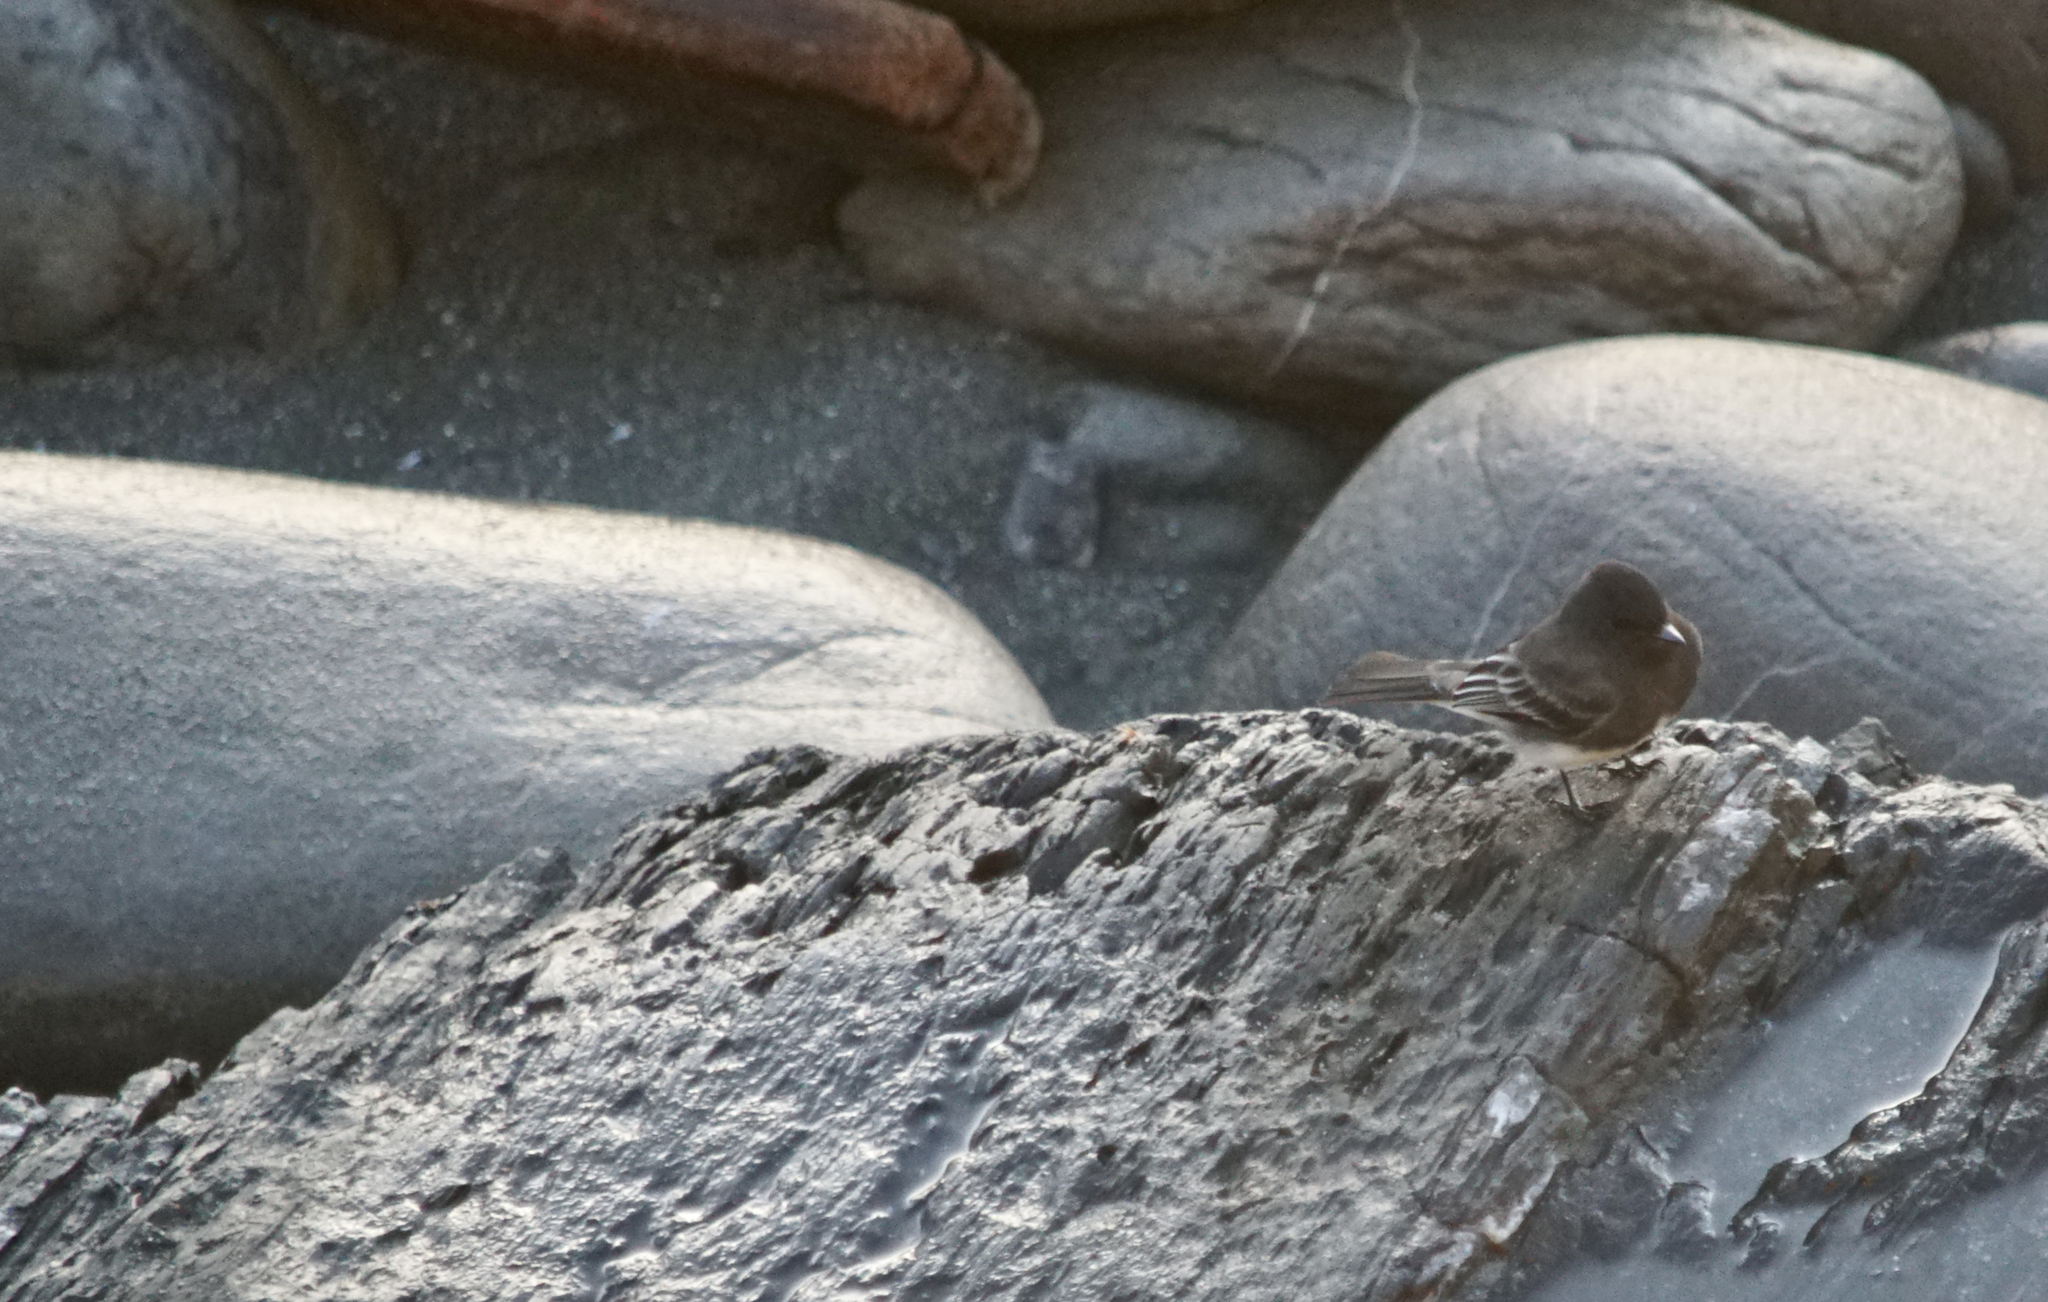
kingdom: Animalia
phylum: Chordata
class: Aves
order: Passeriformes
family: Tyrannidae
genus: Sayornis
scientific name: Sayornis nigricans
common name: Black phoebe
